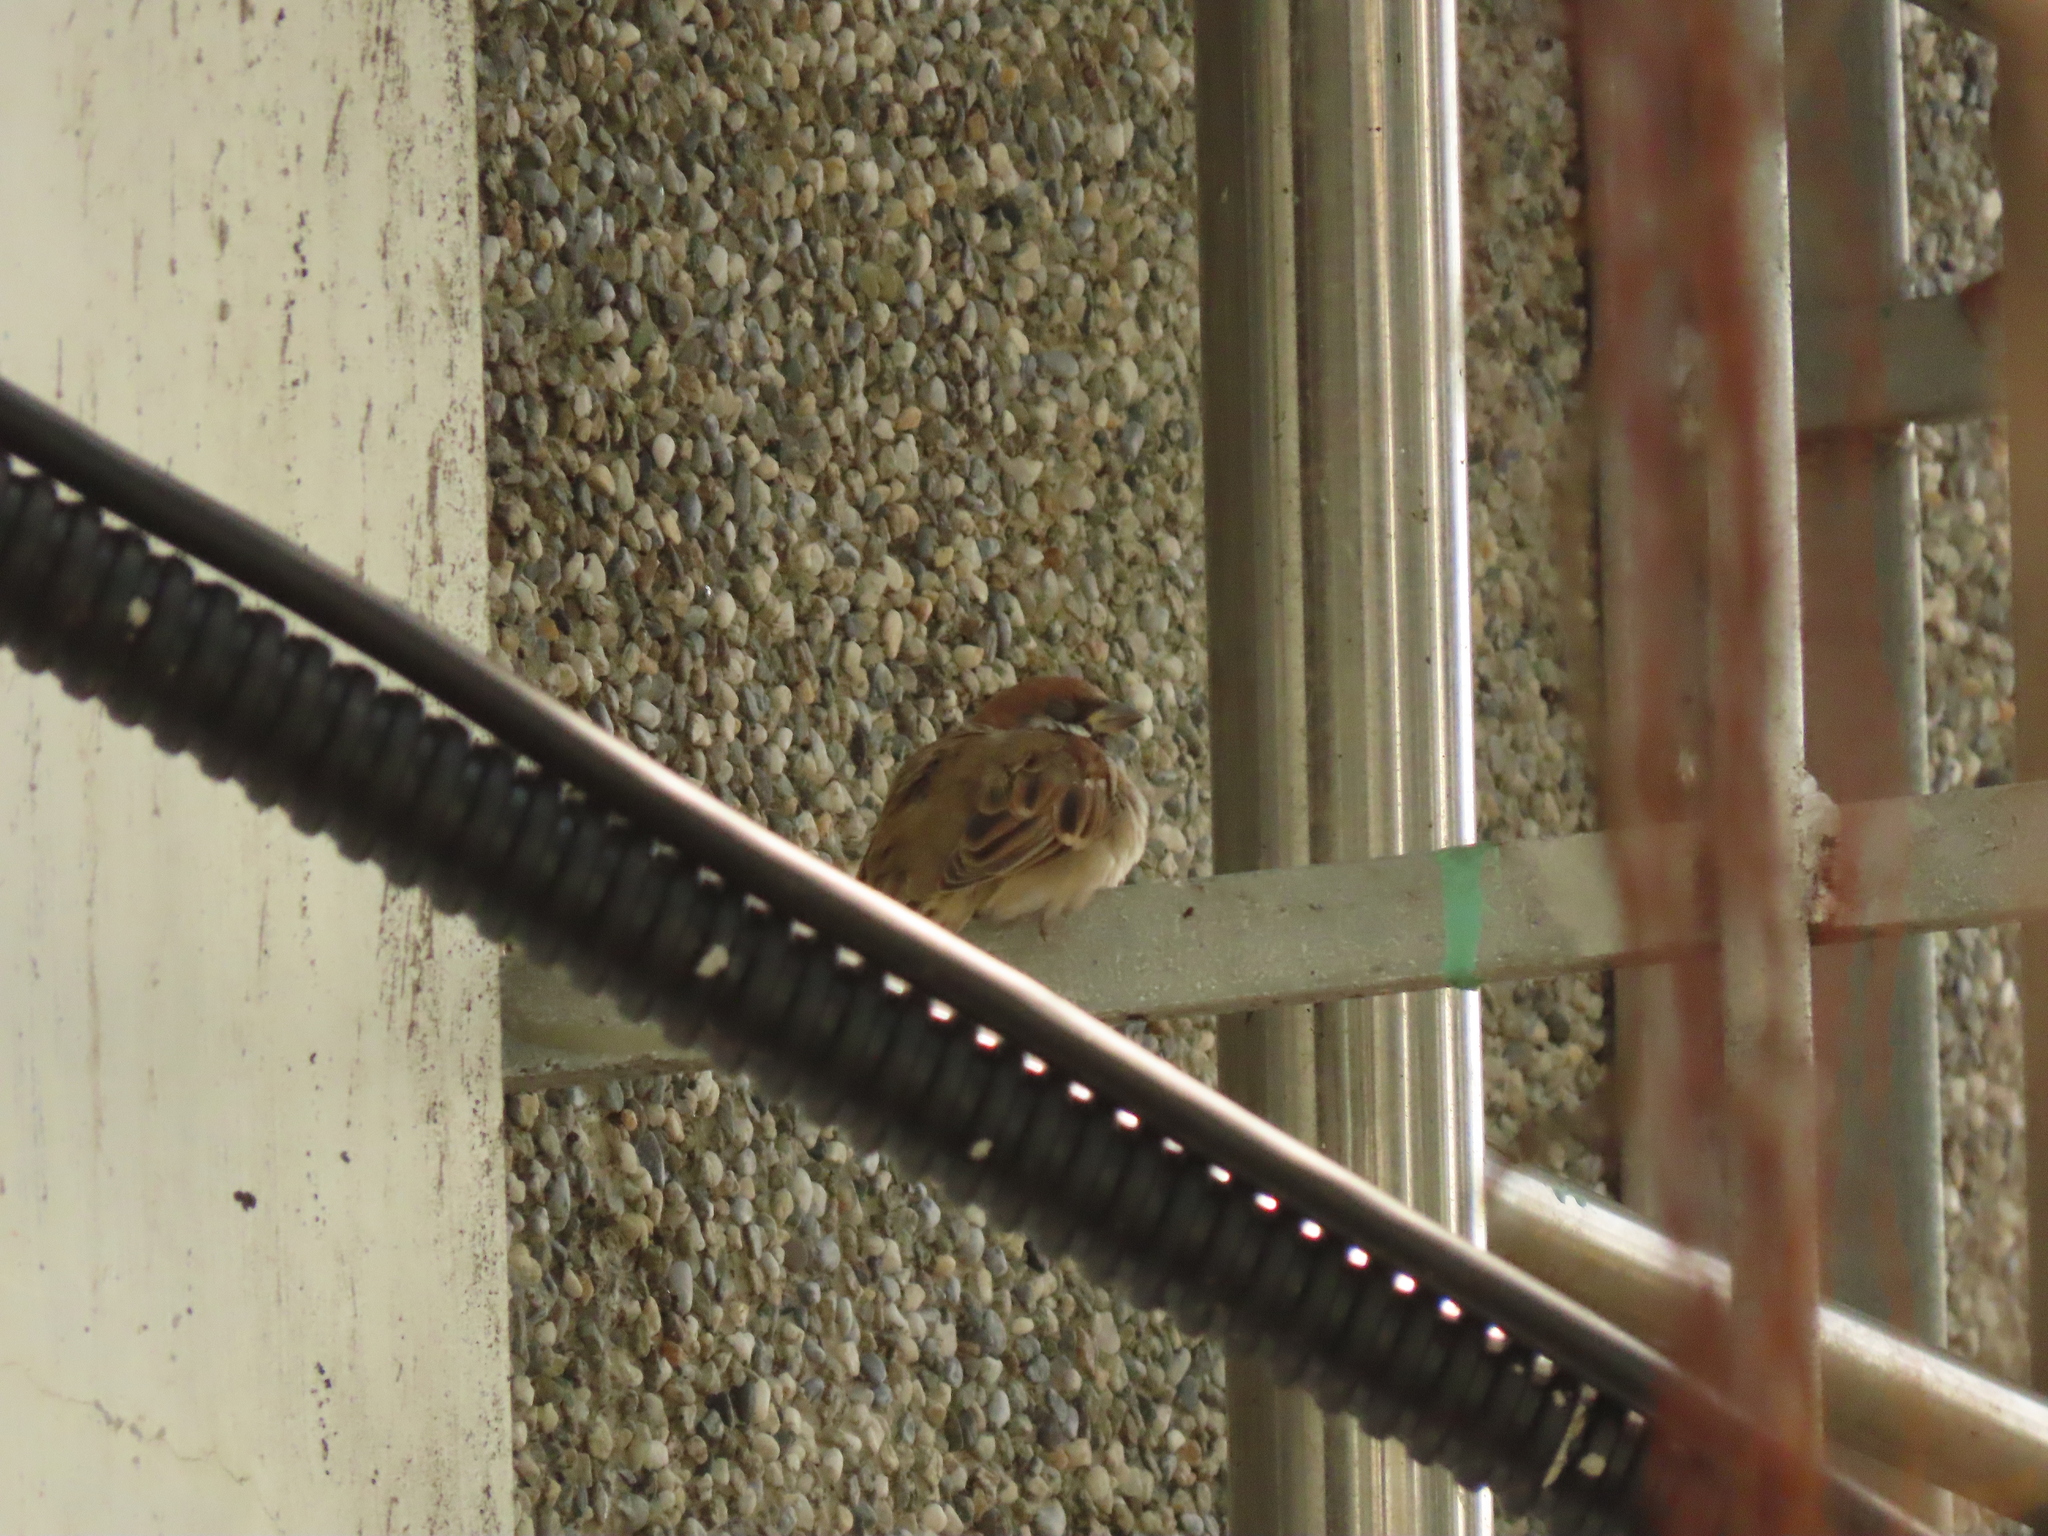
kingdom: Animalia
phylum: Chordata
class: Aves
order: Passeriformes
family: Passeridae
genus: Passer
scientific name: Passer montanus
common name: Eurasian tree sparrow
